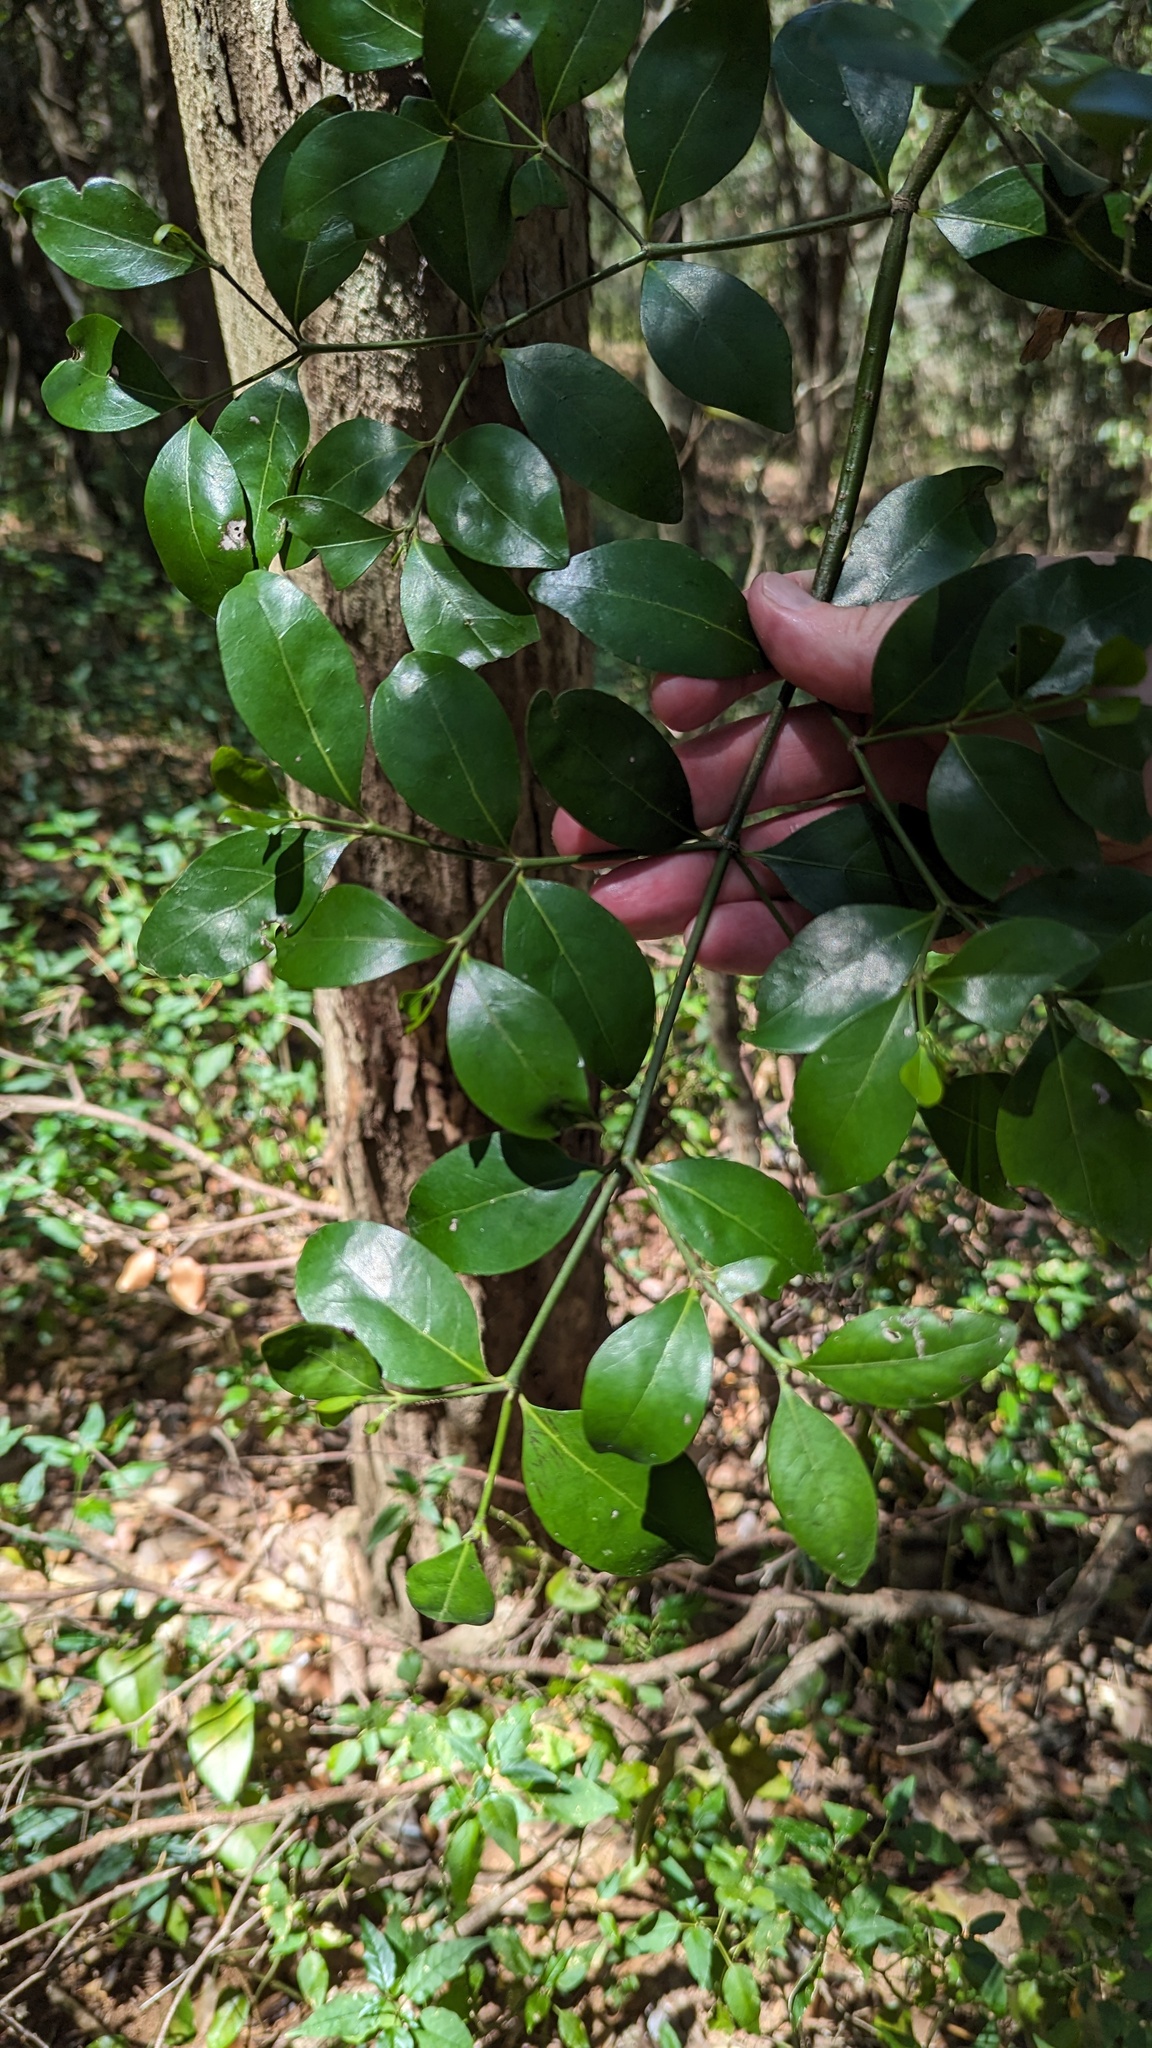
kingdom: Plantae
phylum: Tracheophyta
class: Magnoliopsida
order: Gentianales
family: Rubiaceae
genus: Psydrax
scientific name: Psydrax odoratus
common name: Alahe'e
